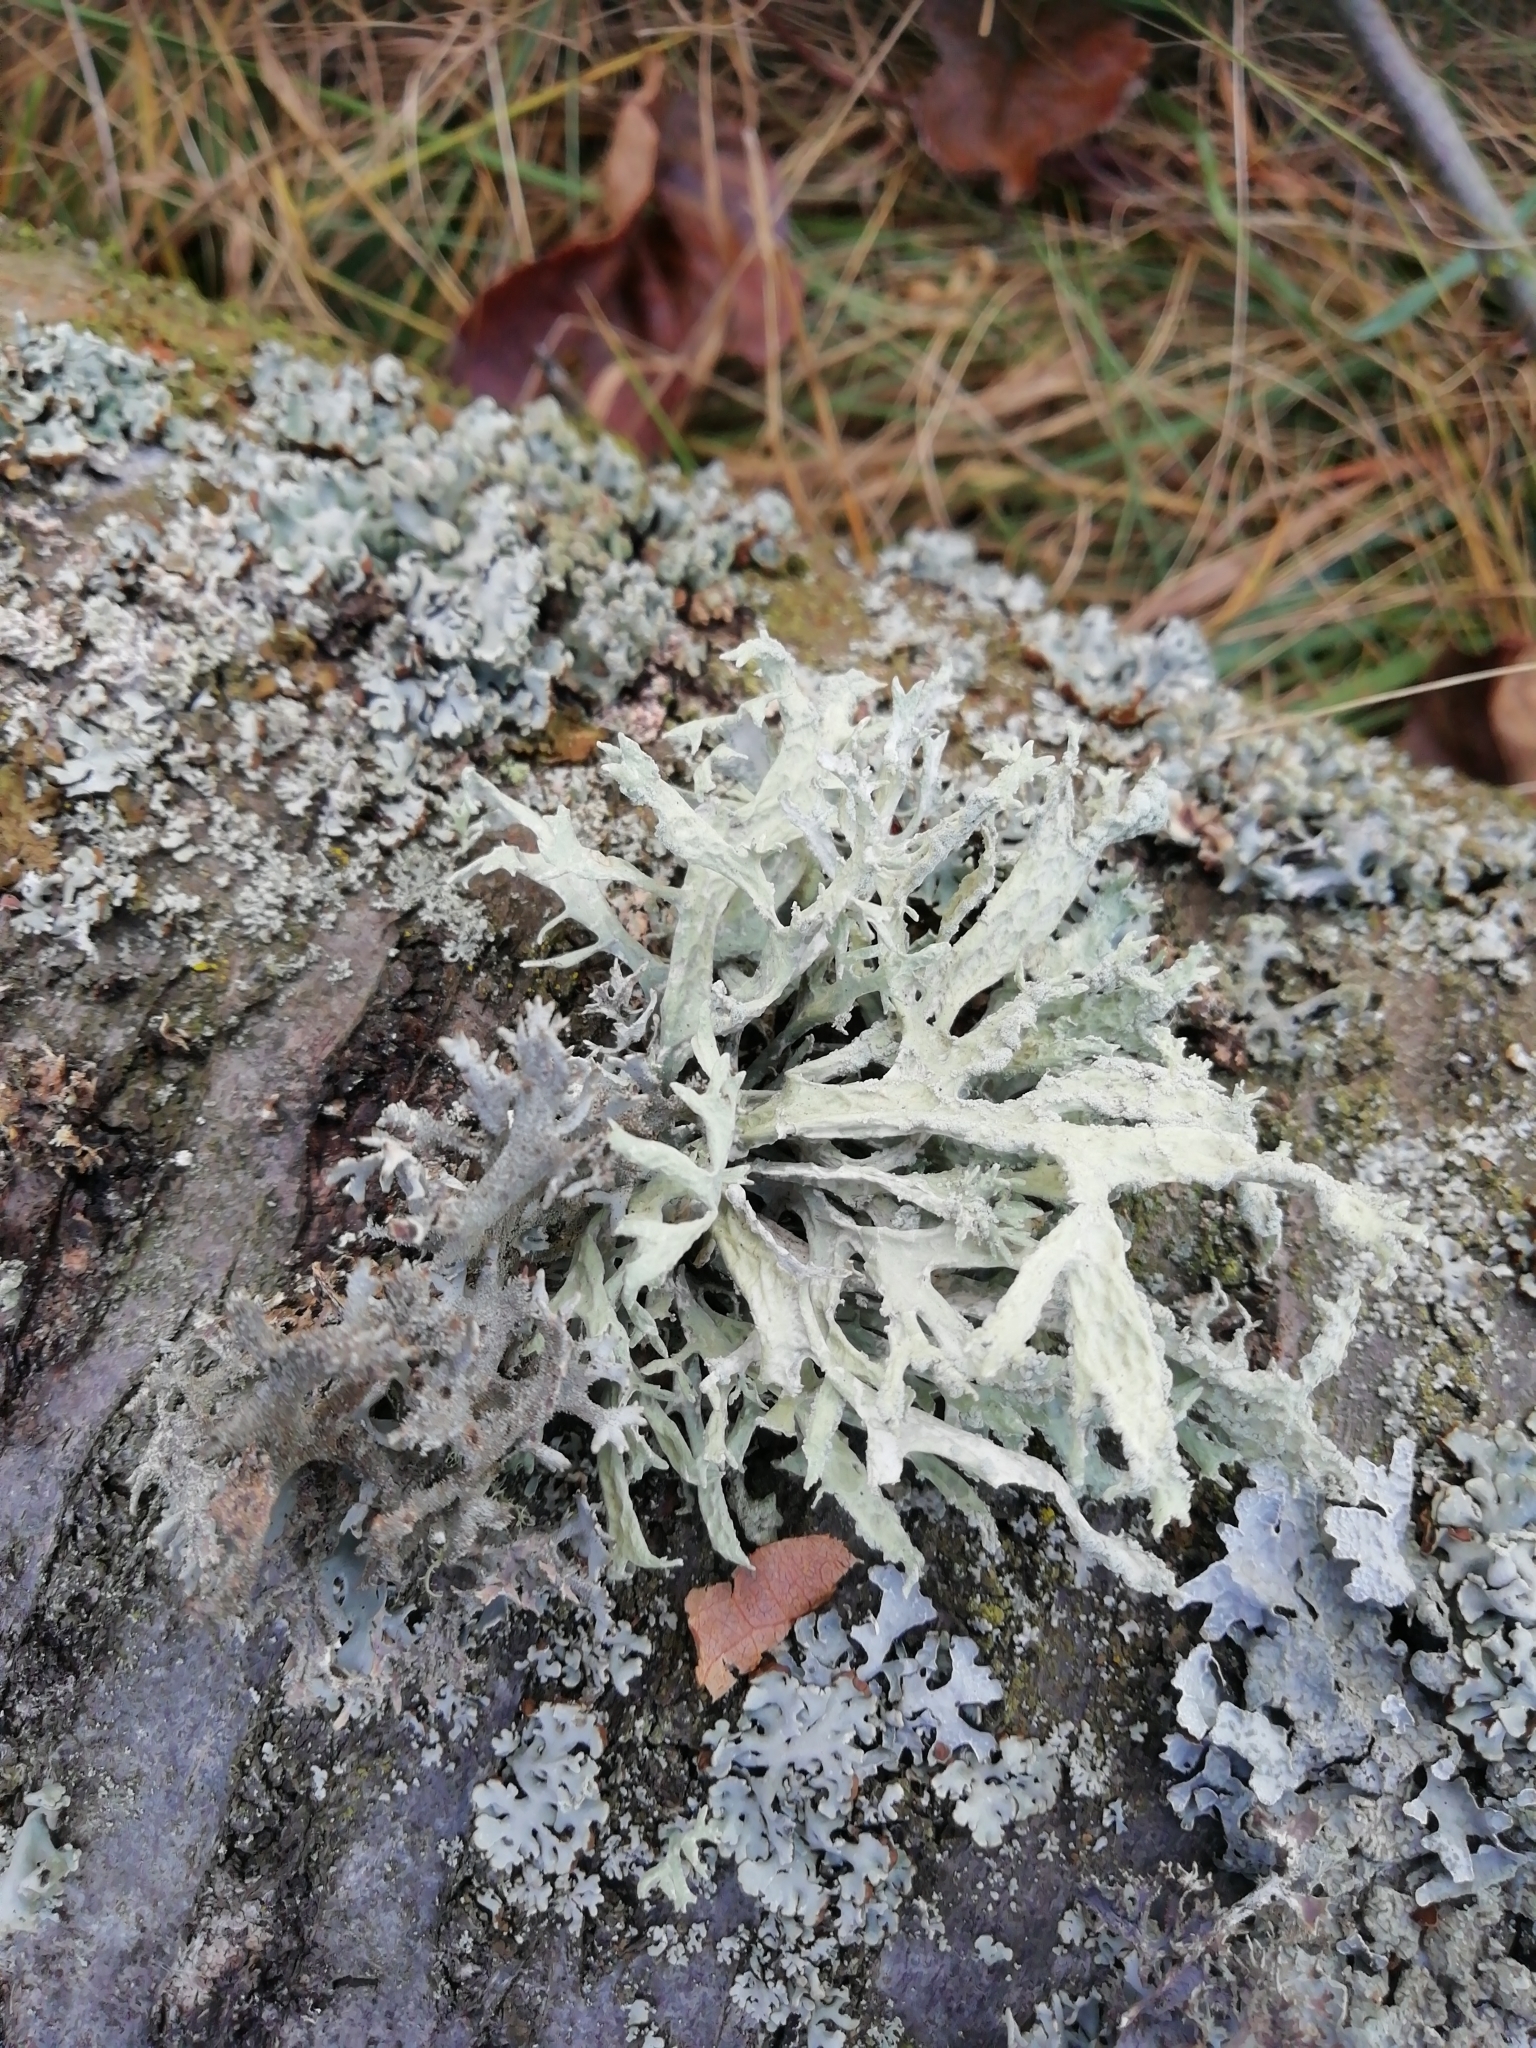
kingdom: Fungi
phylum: Ascomycota
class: Lecanoromycetes
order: Lecanorales
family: Parmeliaceae
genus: Evernia
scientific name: Evernia prunastri
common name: Oak moss
